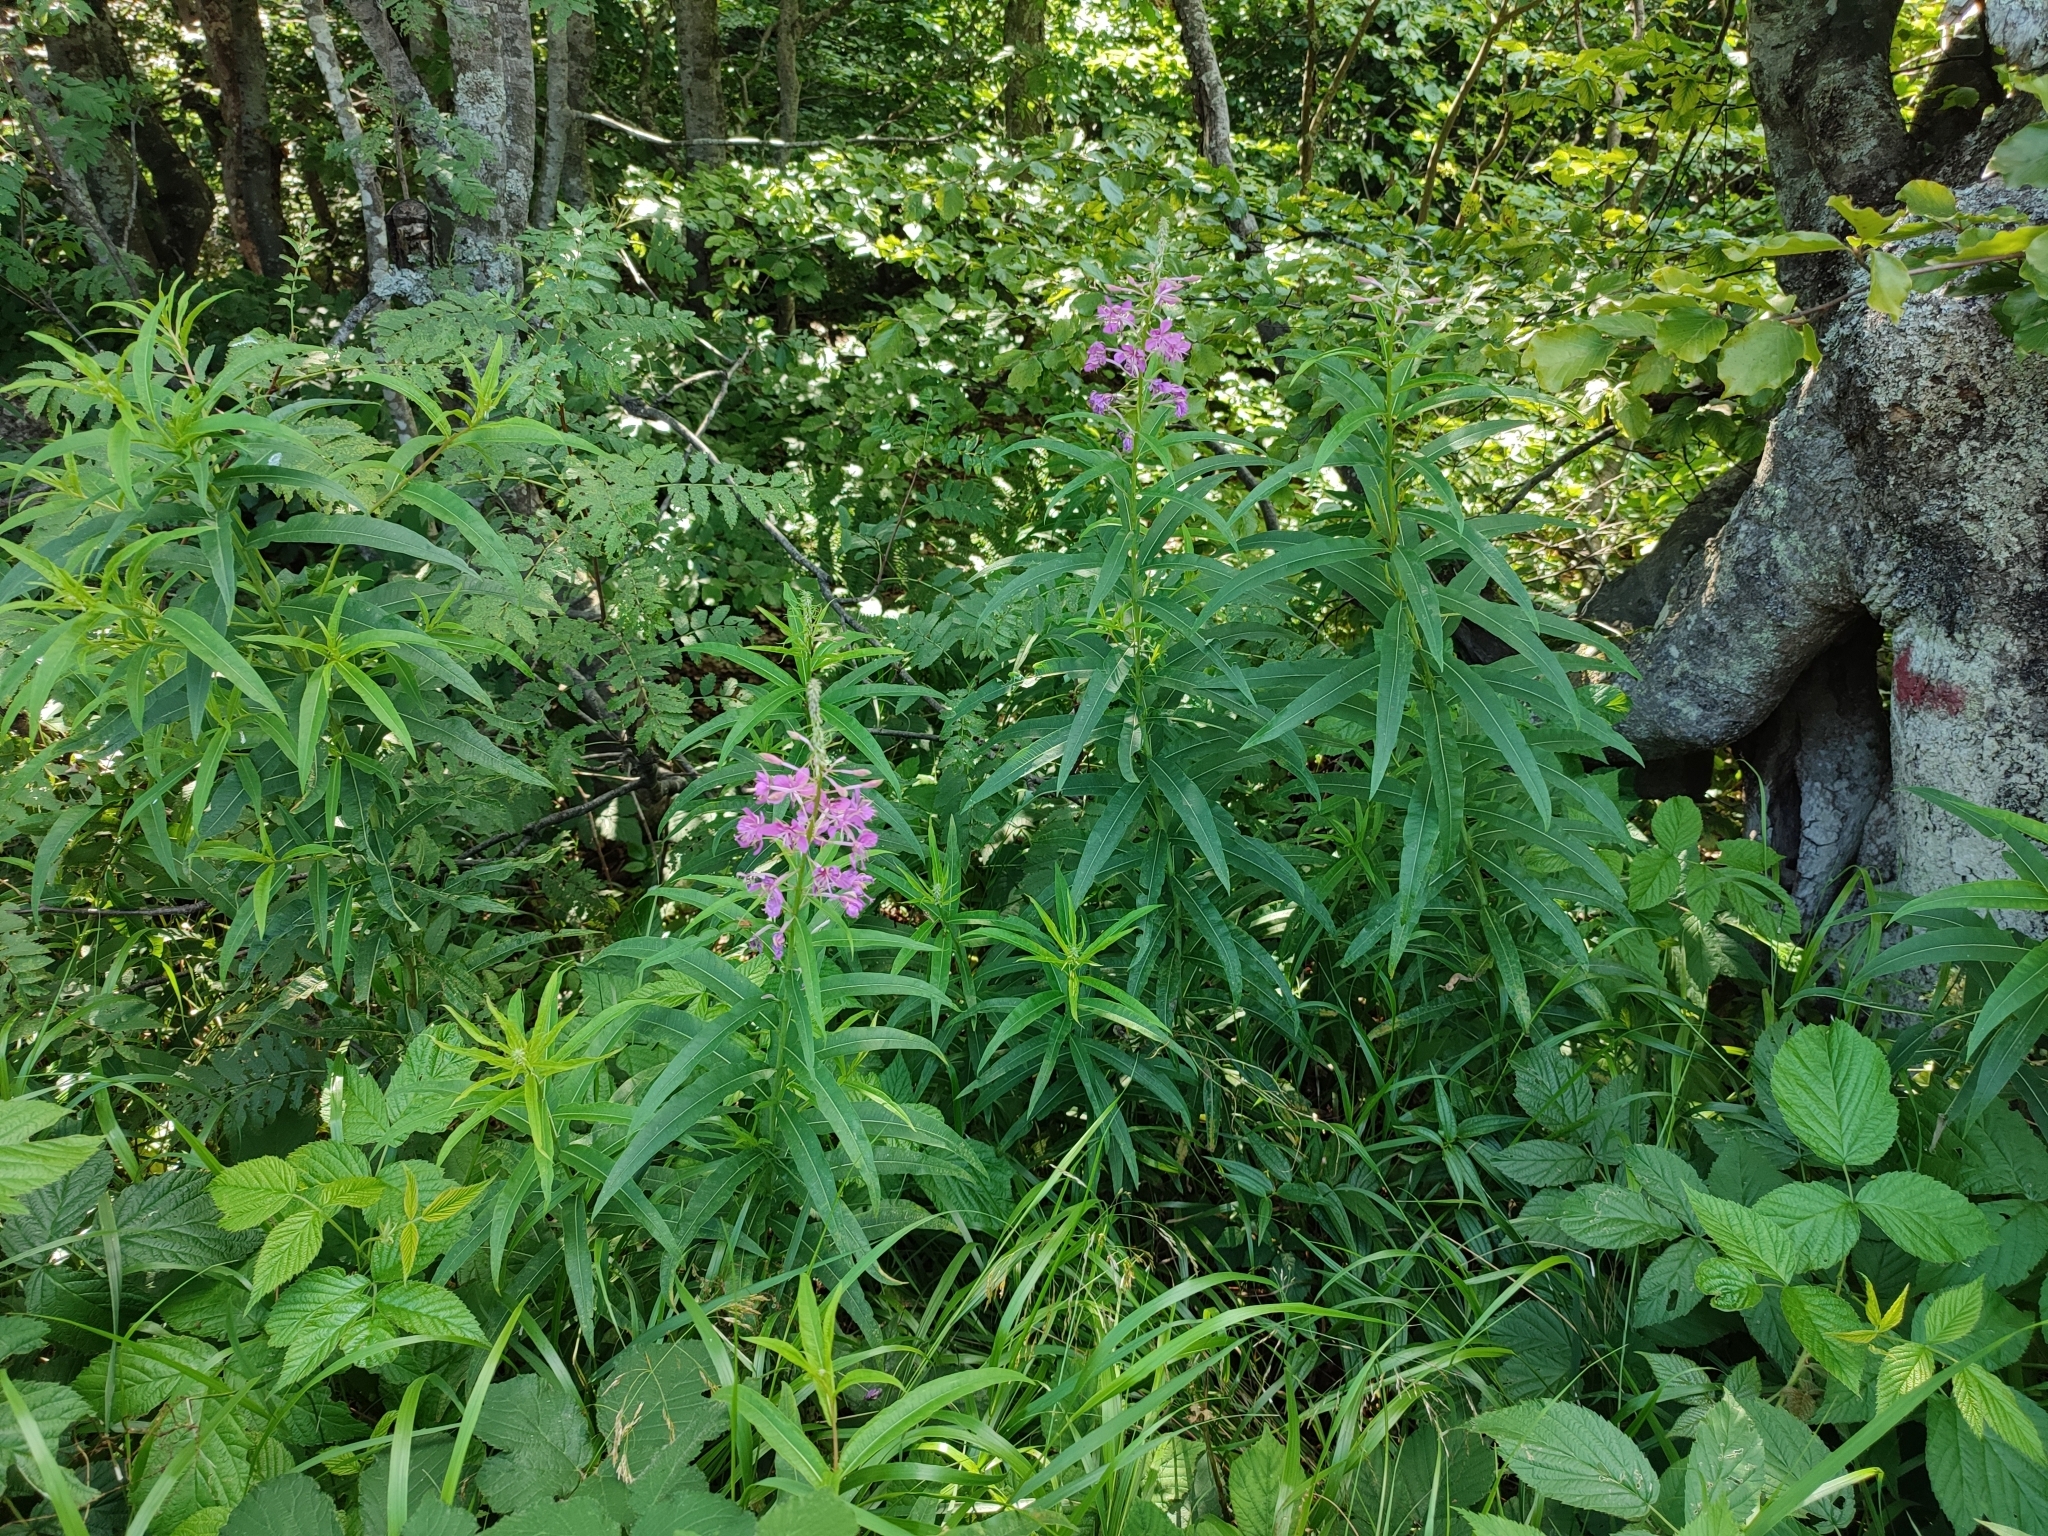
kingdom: Plantae
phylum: Tracheophyta
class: Magnoliopsida
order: Myrtales
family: Onagraceae
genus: Chamaenerion
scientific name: Chamaenerion angustifolium
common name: Fireweed
